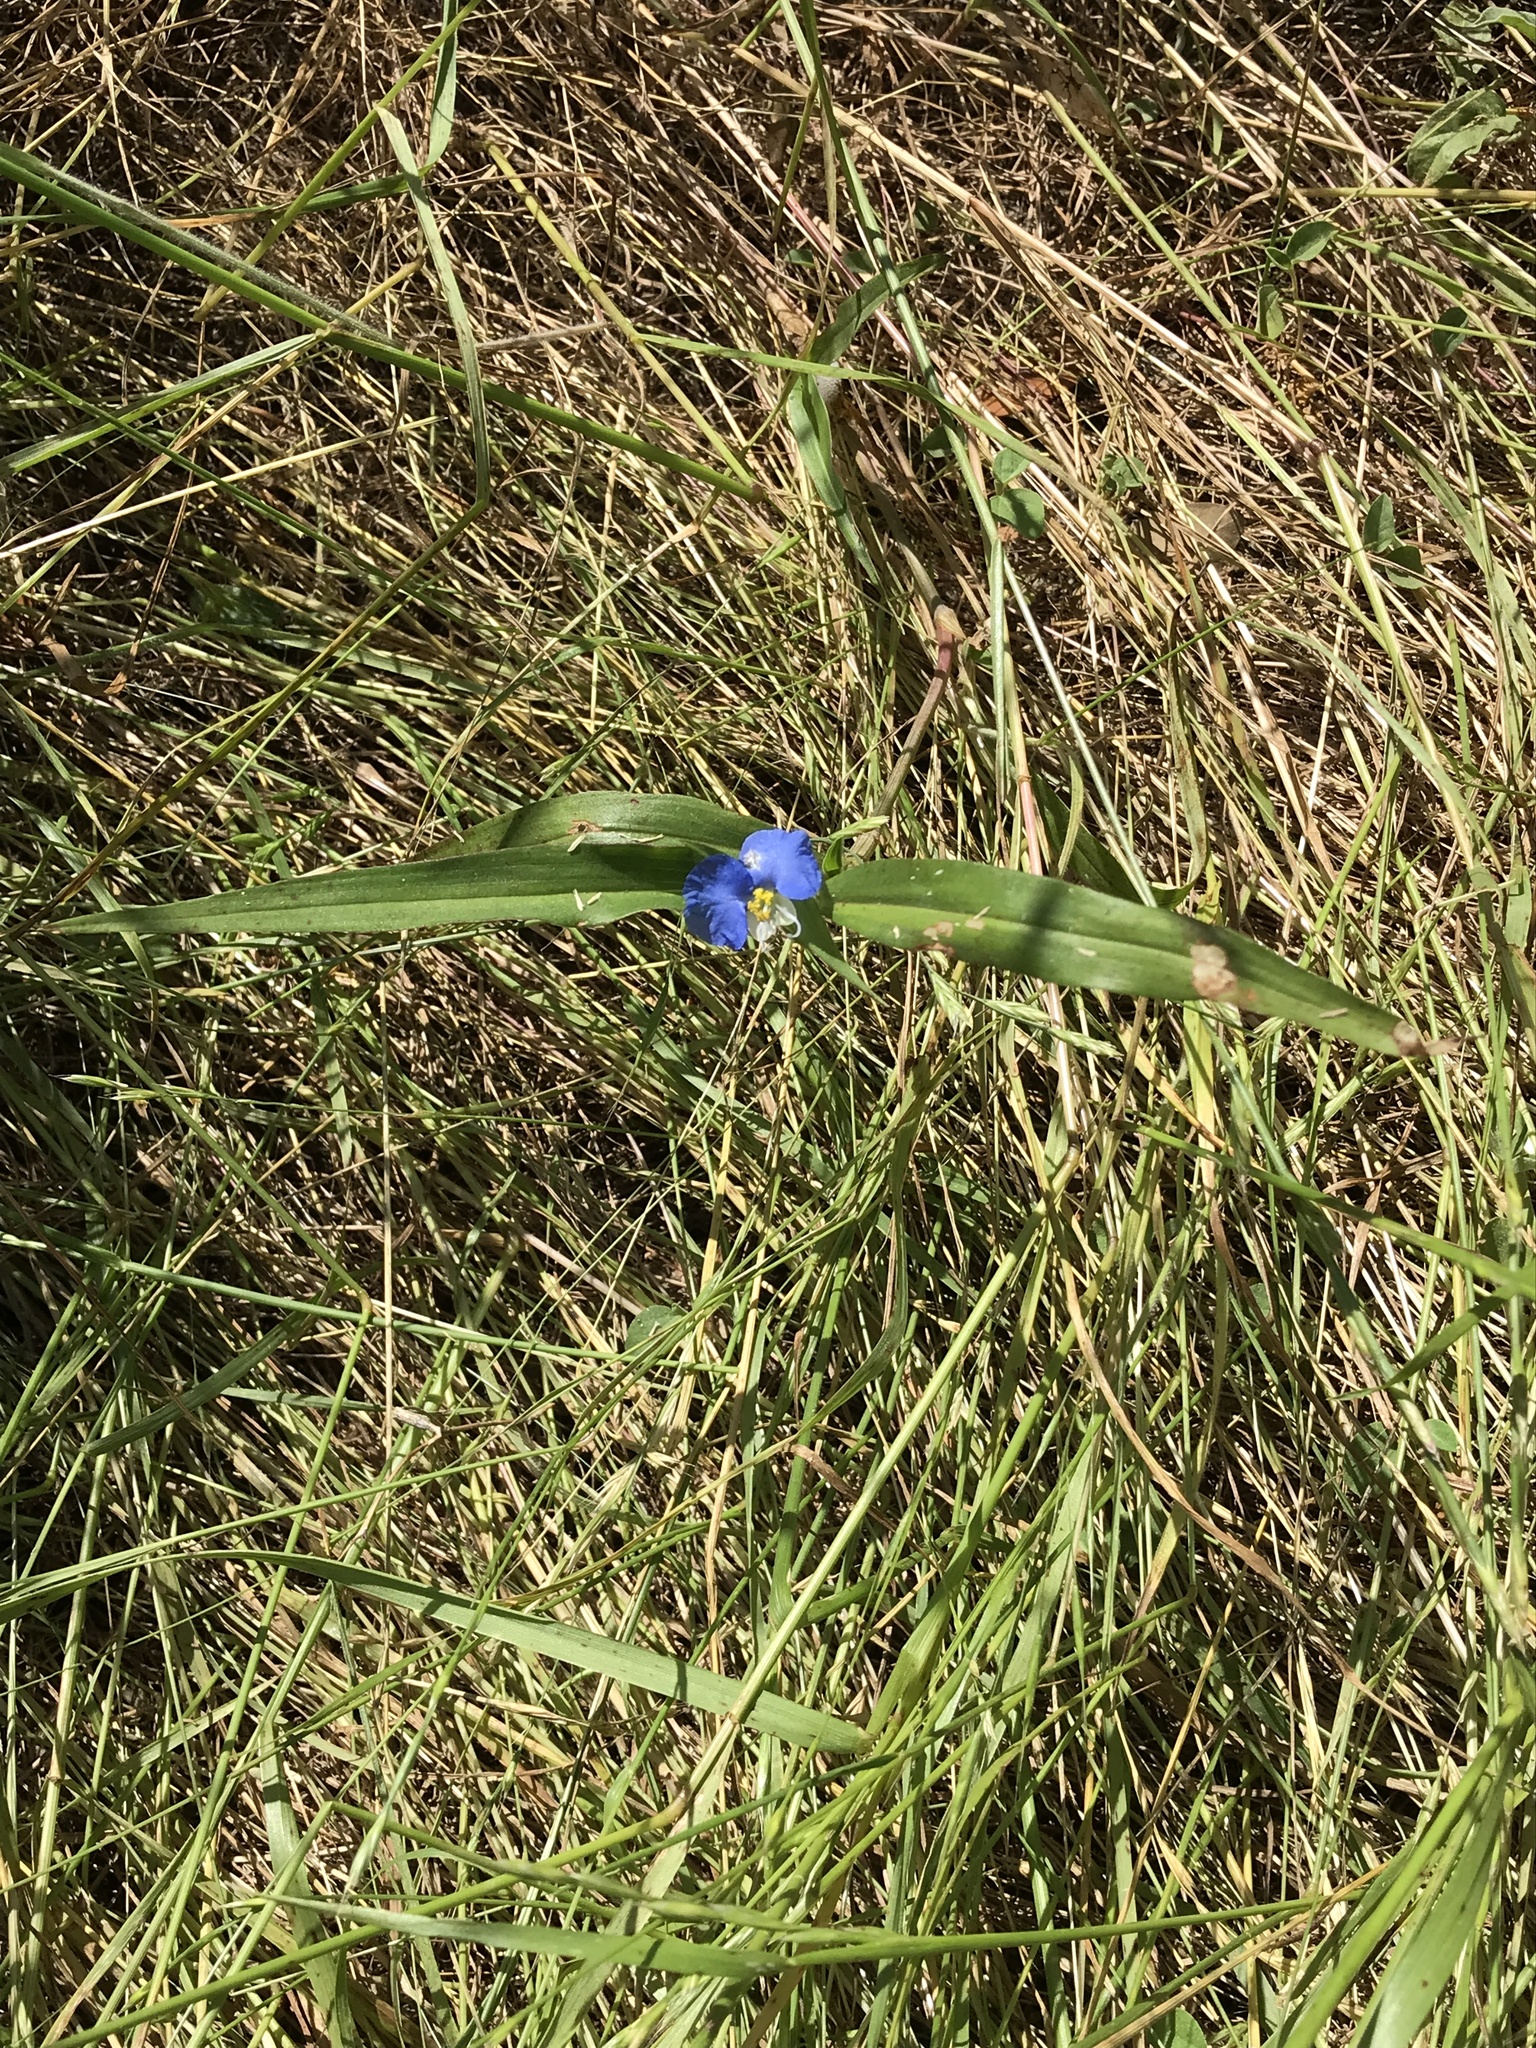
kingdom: Plantae
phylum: Tracheophyta
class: Liliopsida
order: Commelinales
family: Commelinaceae
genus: Commelina
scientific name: Commelina erecta
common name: Blousel blommetjie
